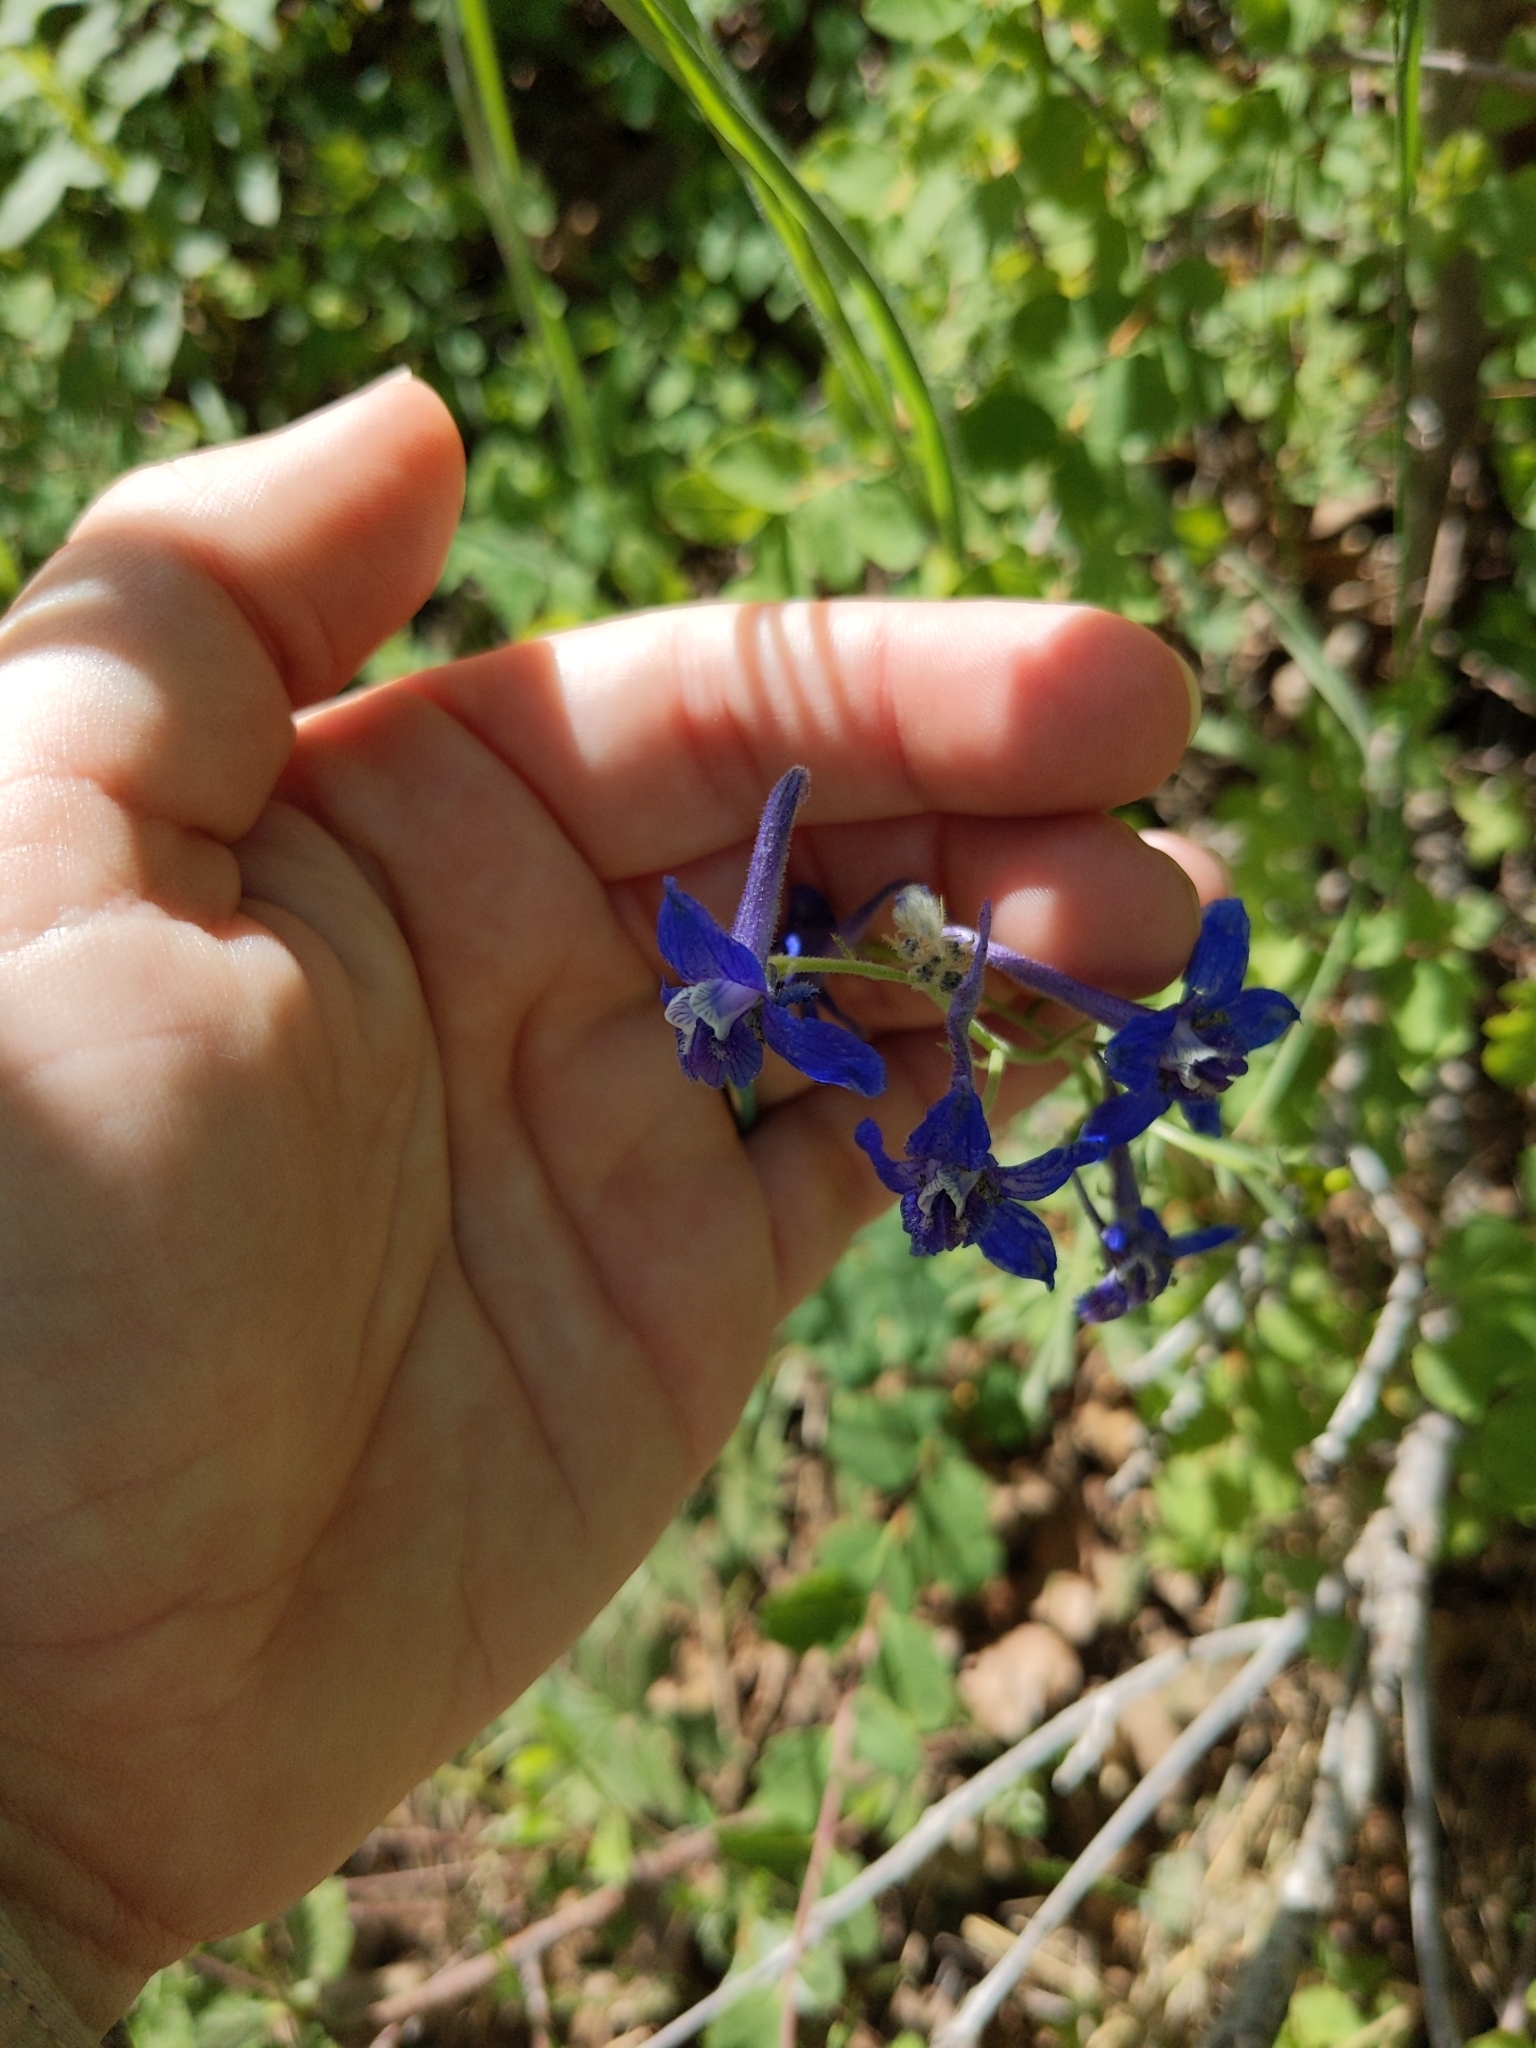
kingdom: Plantae
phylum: Tracheophyta
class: Magnoliopsida
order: Ranunculales
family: Ranunculaceae
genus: Delphinium
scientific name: Delphinium nuttallianum
